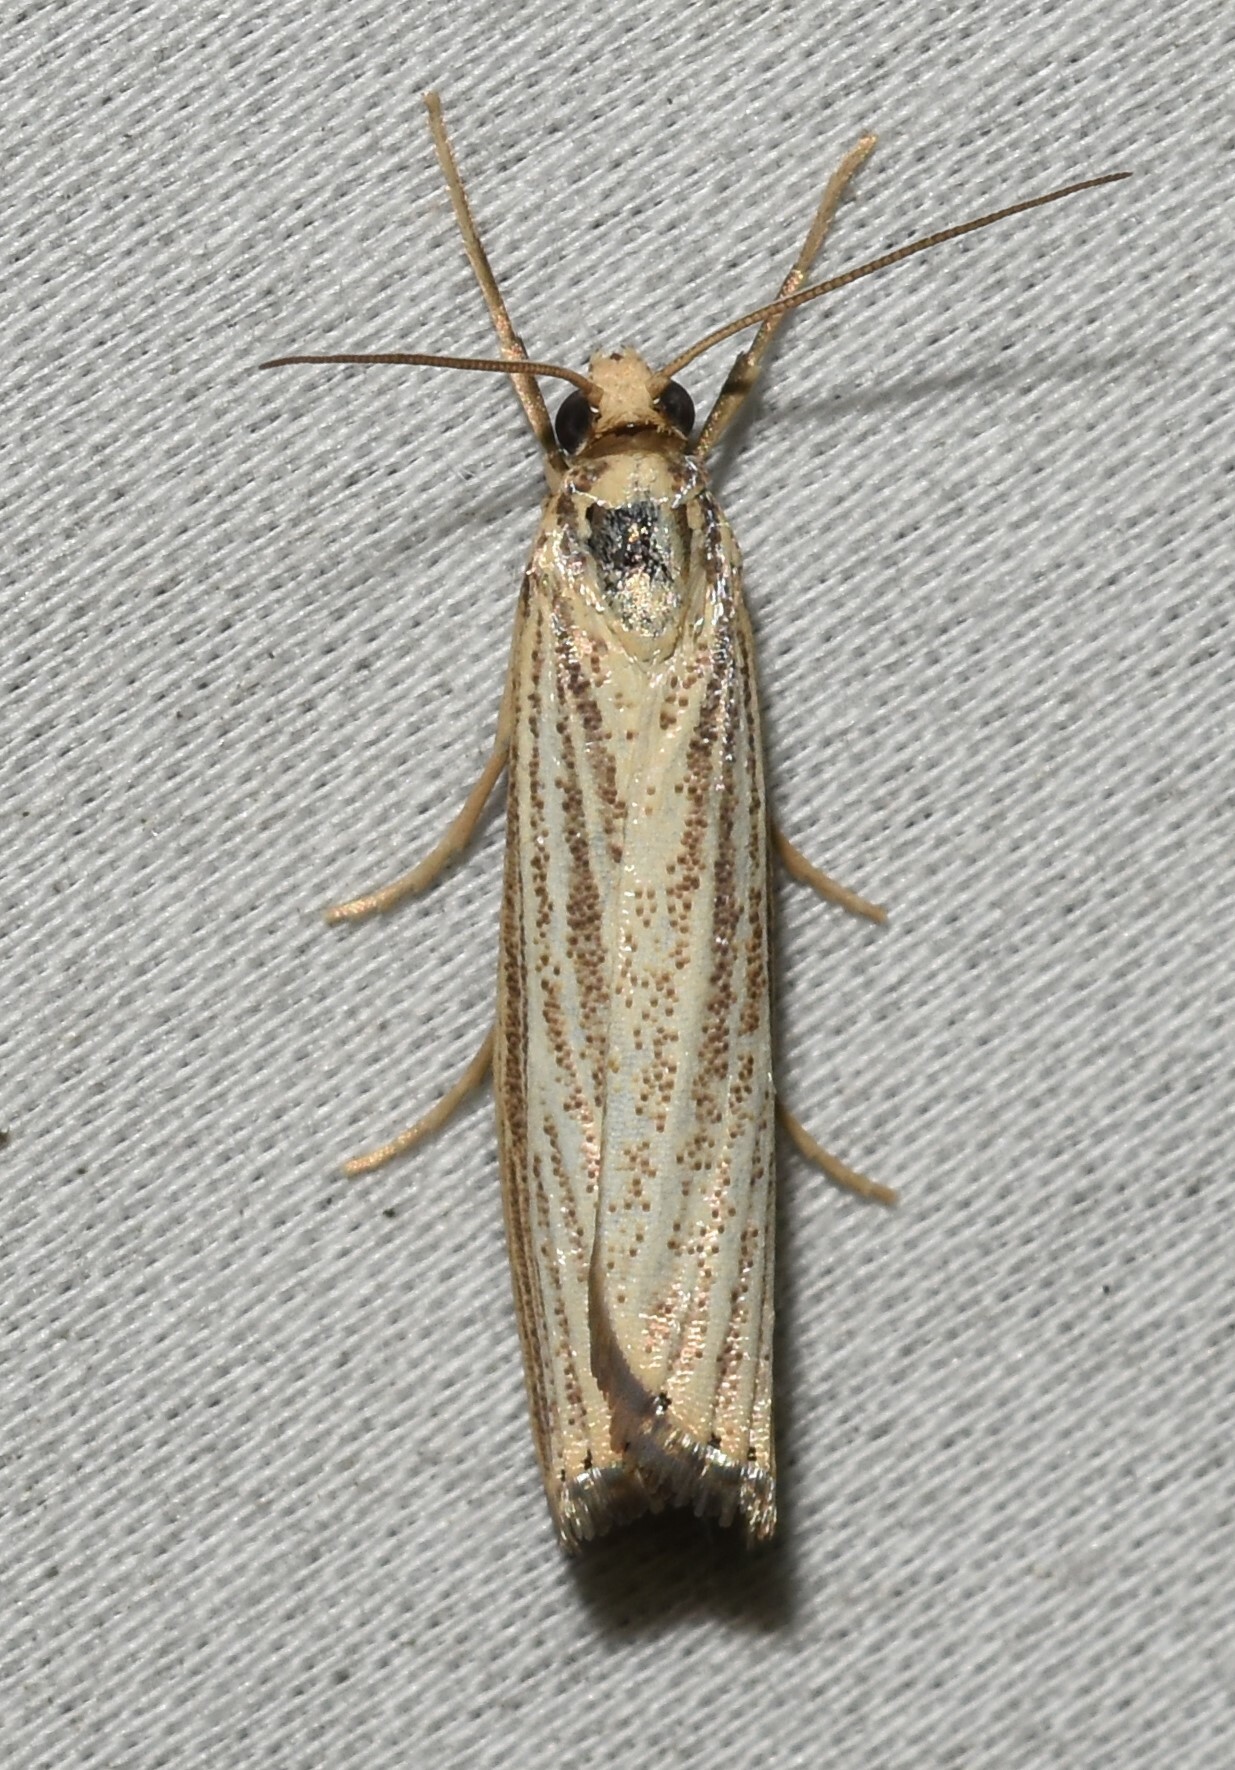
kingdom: Animalia
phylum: Arthropoda
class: Insecta
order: Lepidoptera
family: Crambidae
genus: Agriphila
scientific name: Agriphila vulgivagellus
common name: Vagabond crambus moth
